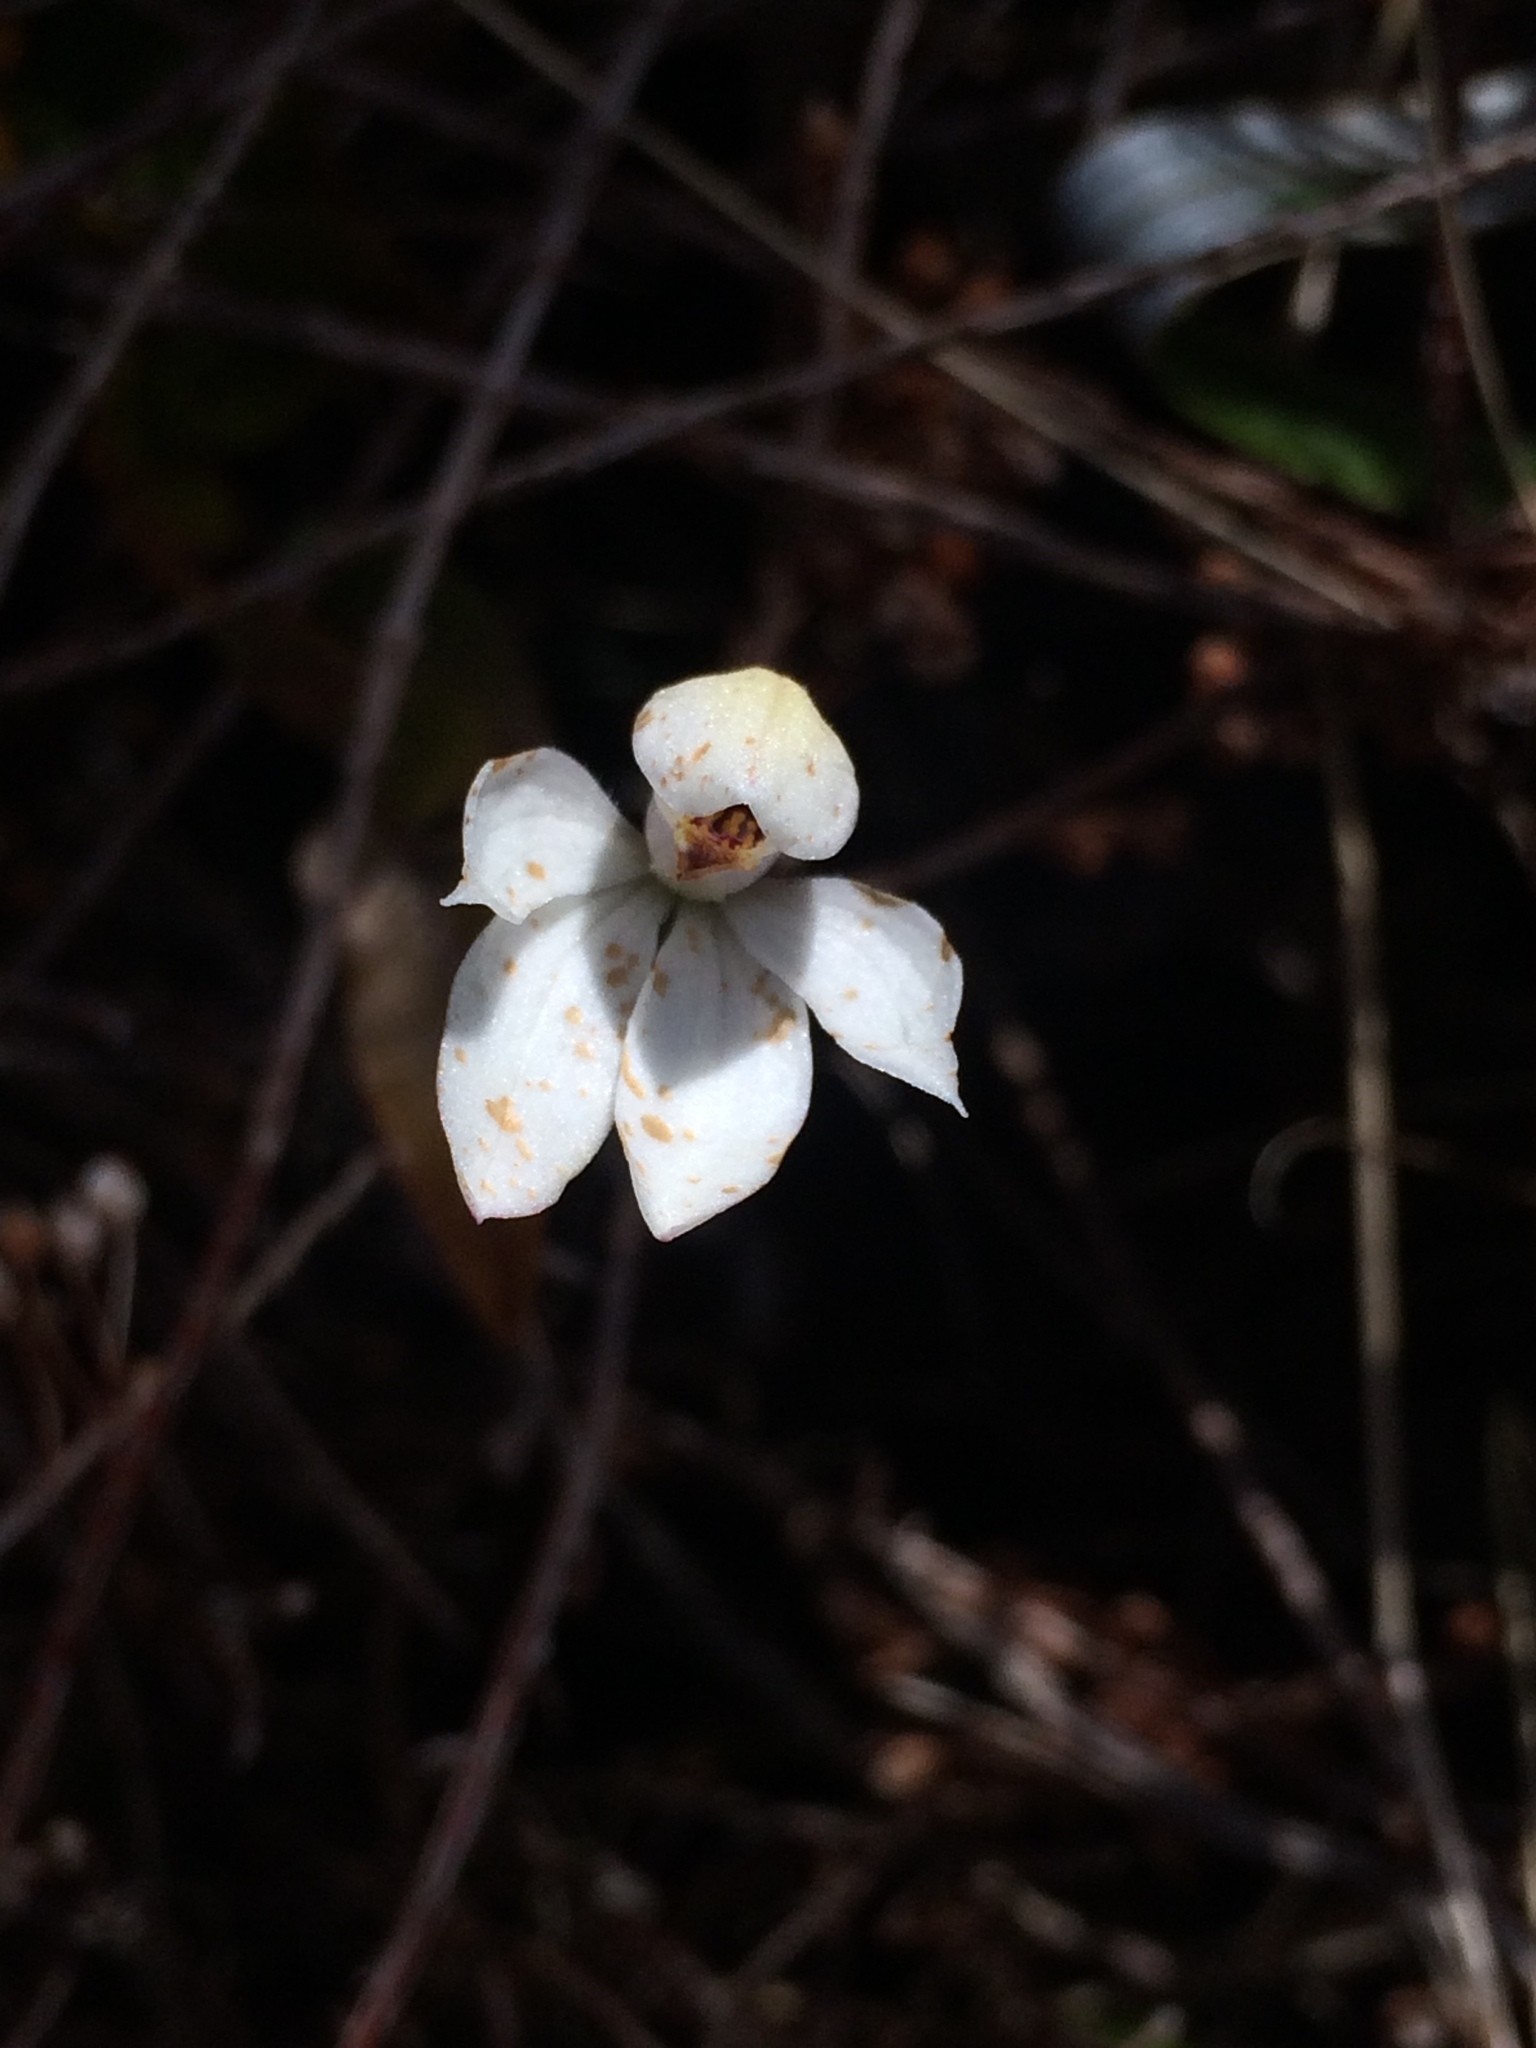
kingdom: Plantae
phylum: Tracheophyta
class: Liliopsida
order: Asparagales
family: Orchidaceae
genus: Caladenia
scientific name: Caladenia lyallii
